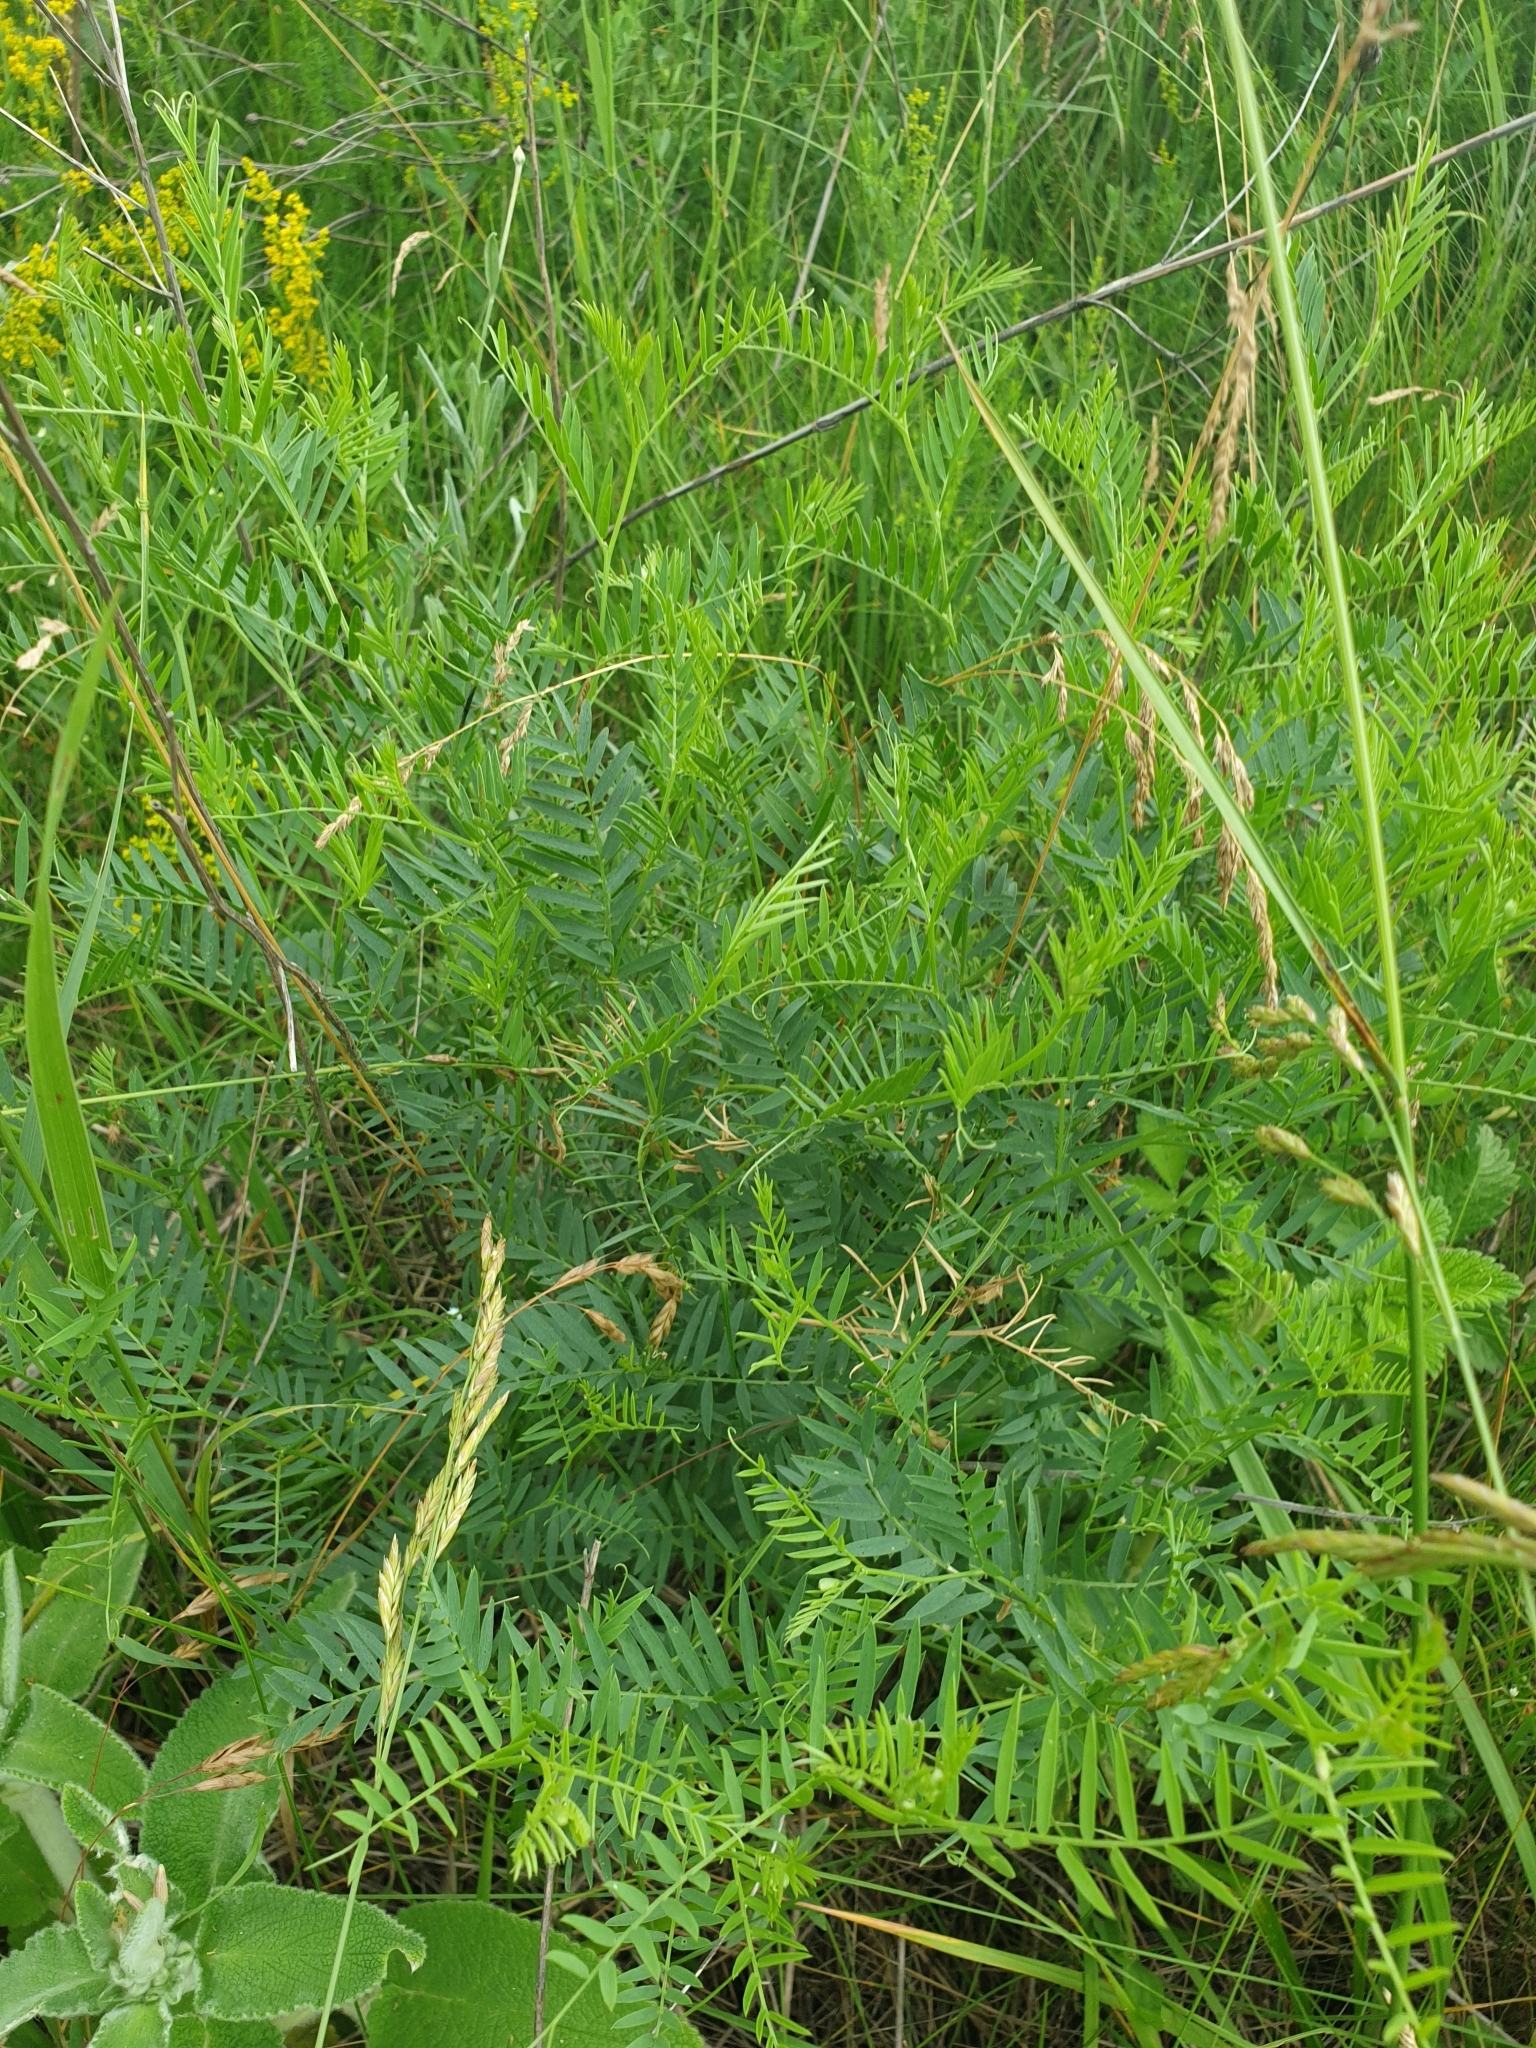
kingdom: Plantae
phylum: Tracheophyta
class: Magnoliopsida
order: Fabales
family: Fabaceae
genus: Vicia
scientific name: Vicia tenuifolia
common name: Fine-leaved vetch
